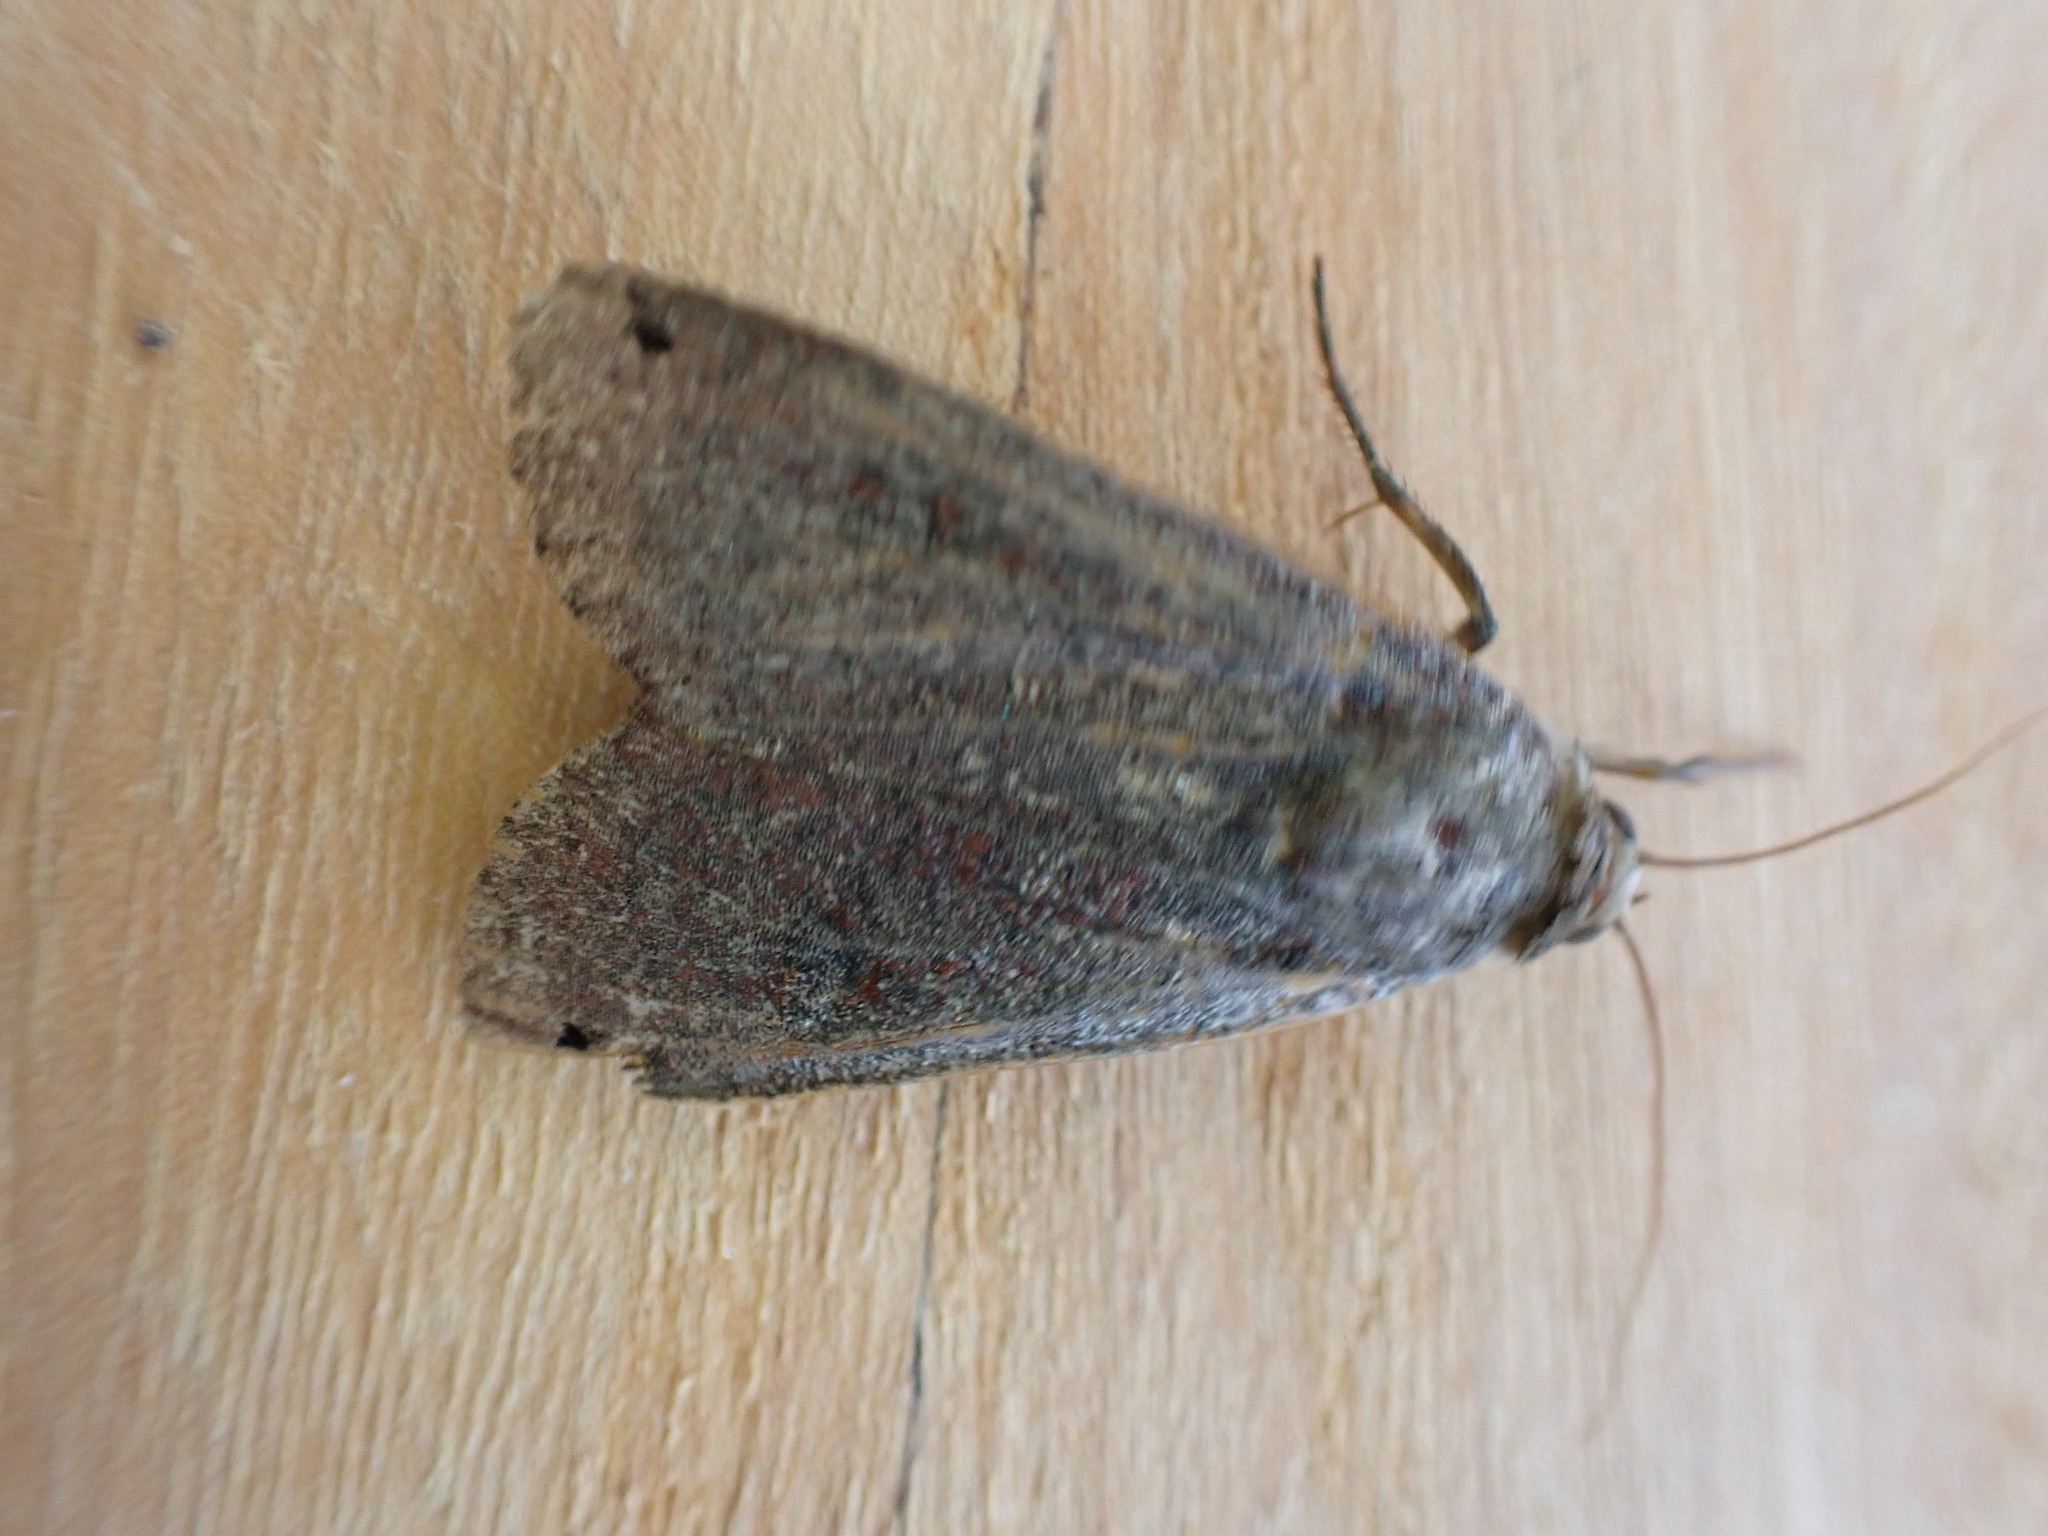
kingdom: Animalia
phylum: Arthropoda
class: Insecta
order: Lepidoptera
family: Noctuidae
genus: Noctua
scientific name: Noctua pronuba
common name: Large yellow underwing
